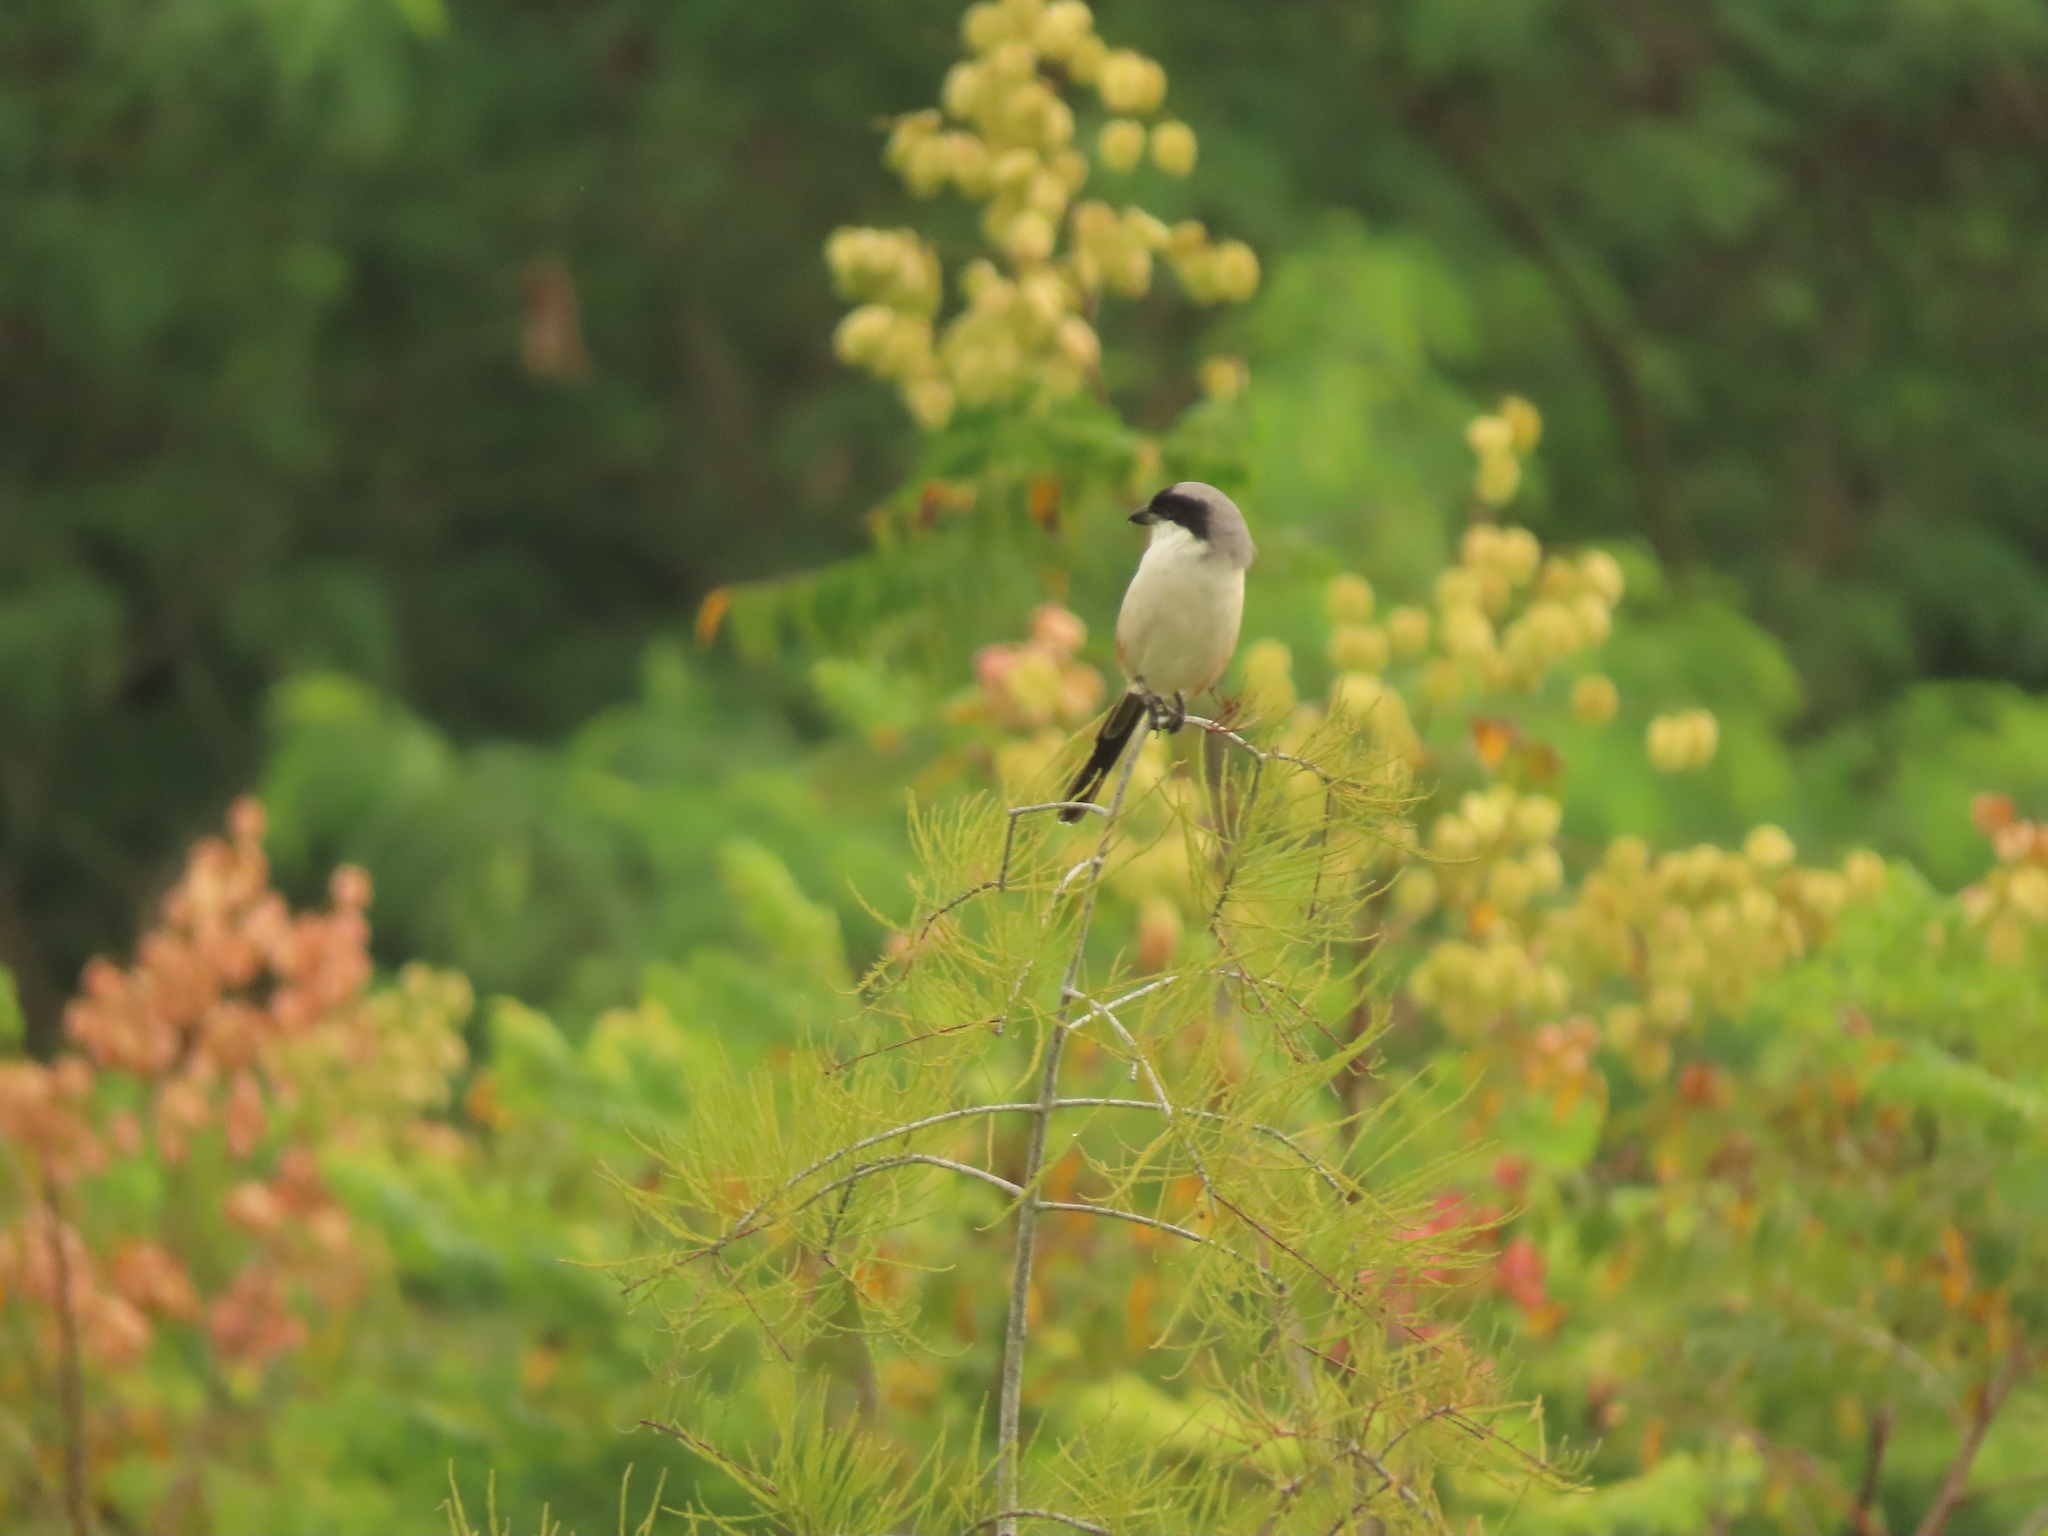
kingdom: Animalia
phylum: Chordata
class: Aves
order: Passeriformes
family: Laniidae
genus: Lanius
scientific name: Lanius schach
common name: Long-tailed shrike
